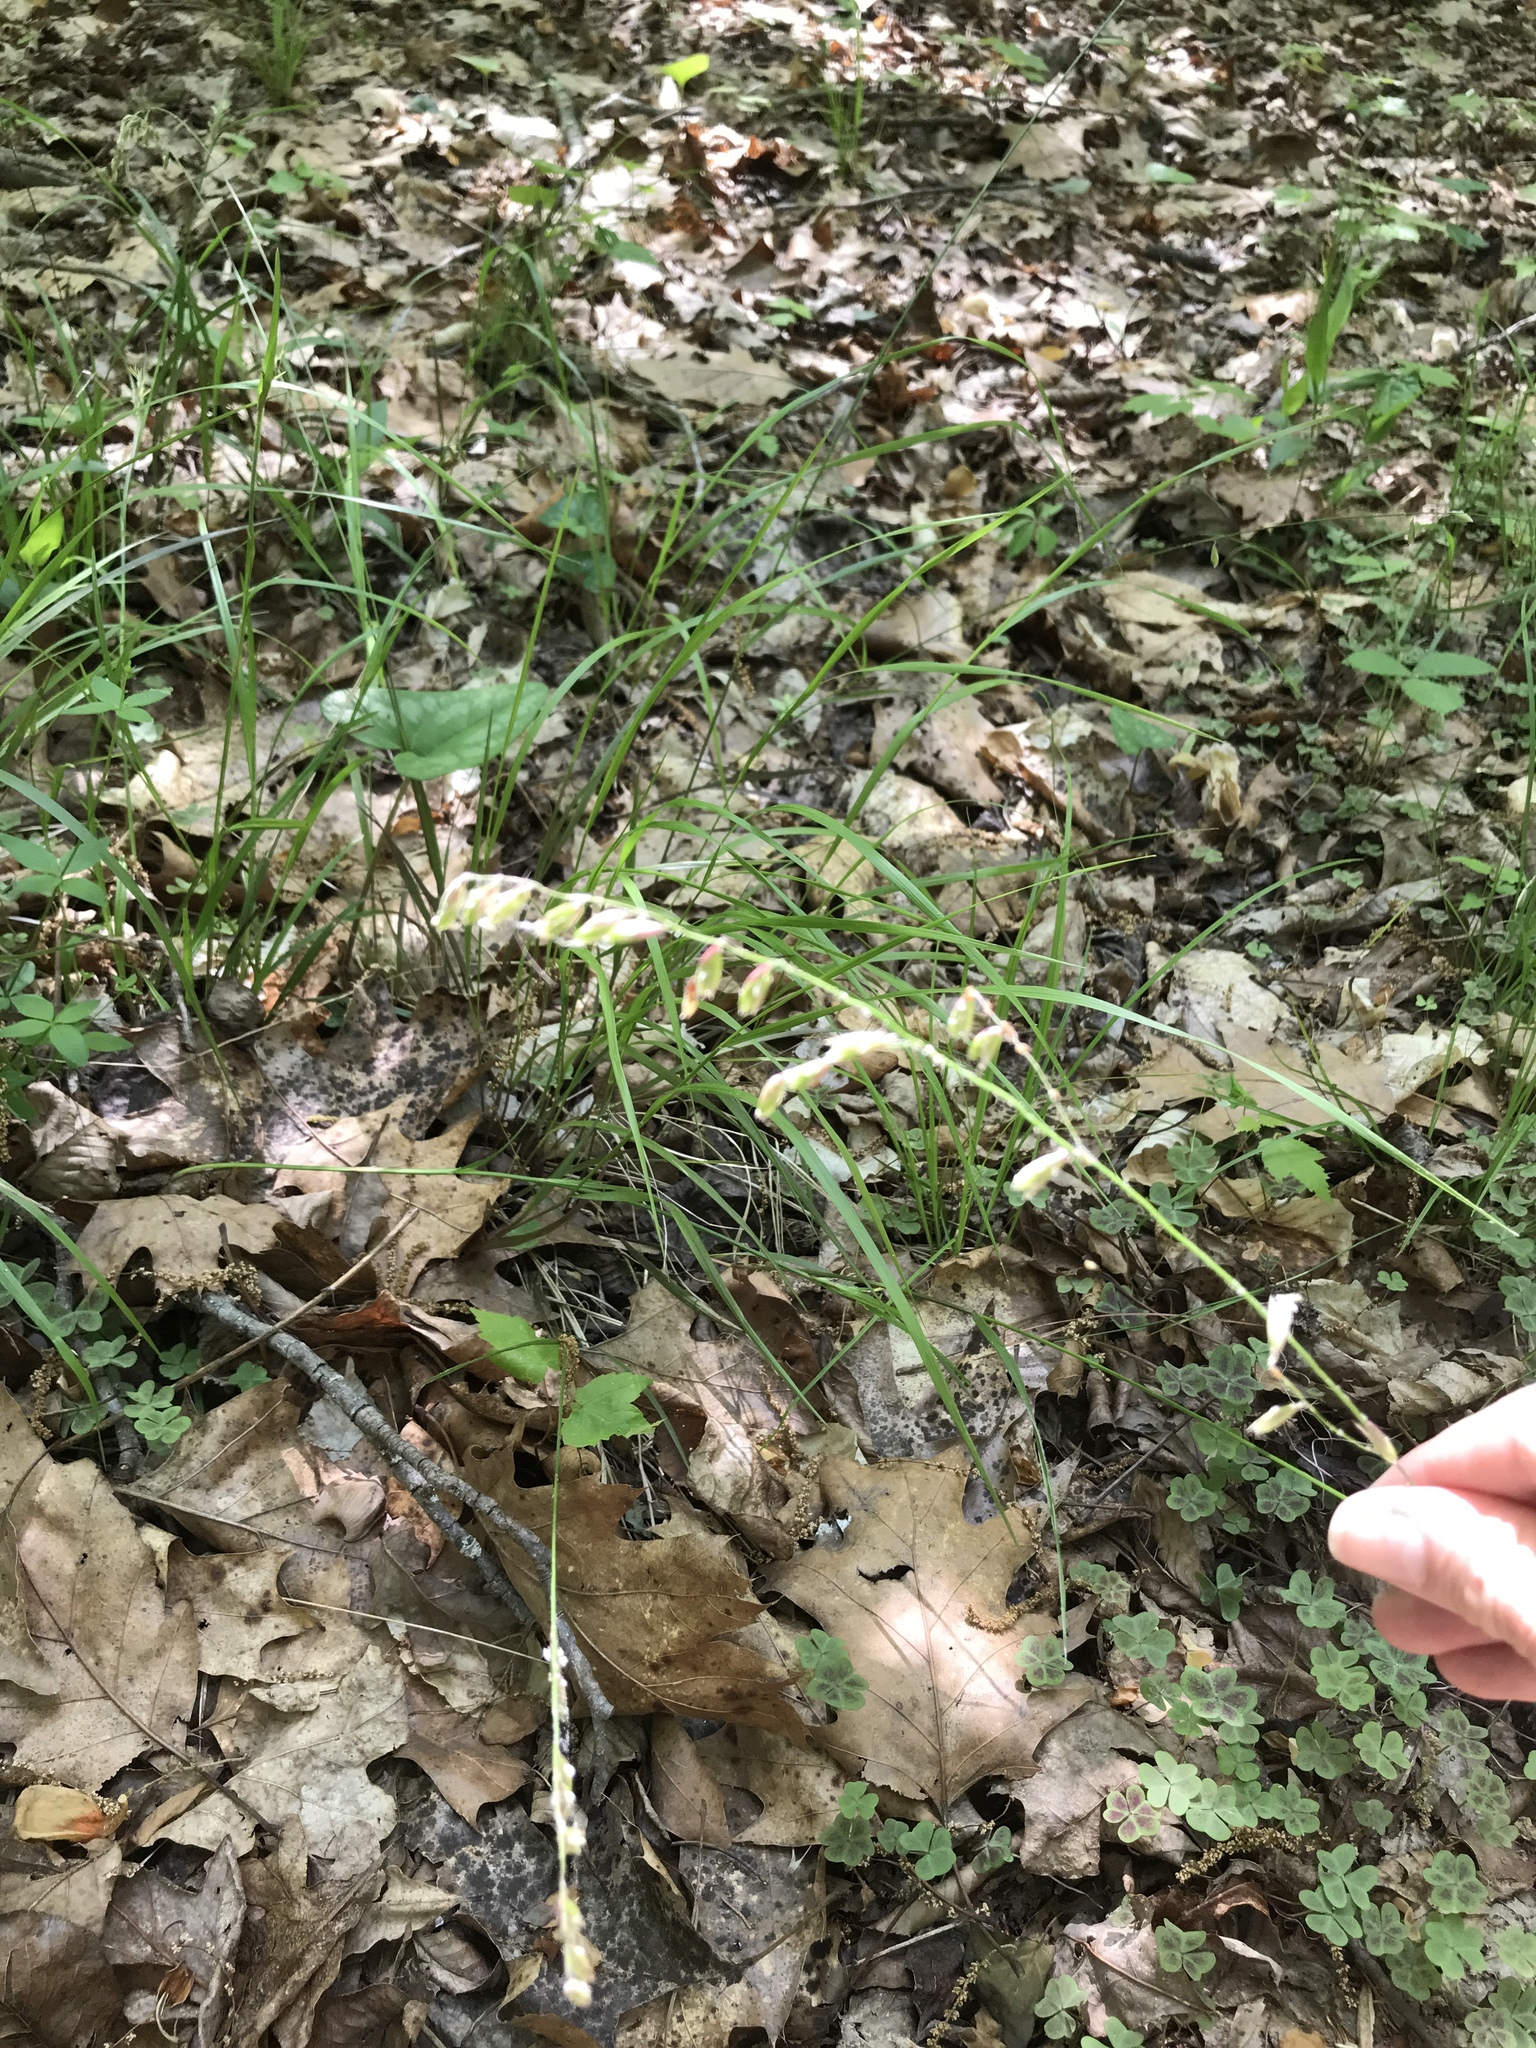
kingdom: Plantae
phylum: Tracheophyta
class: Liliopsida
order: Poales
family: Poaceae
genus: Melica
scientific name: Melica mutica
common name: Two-flower melic
